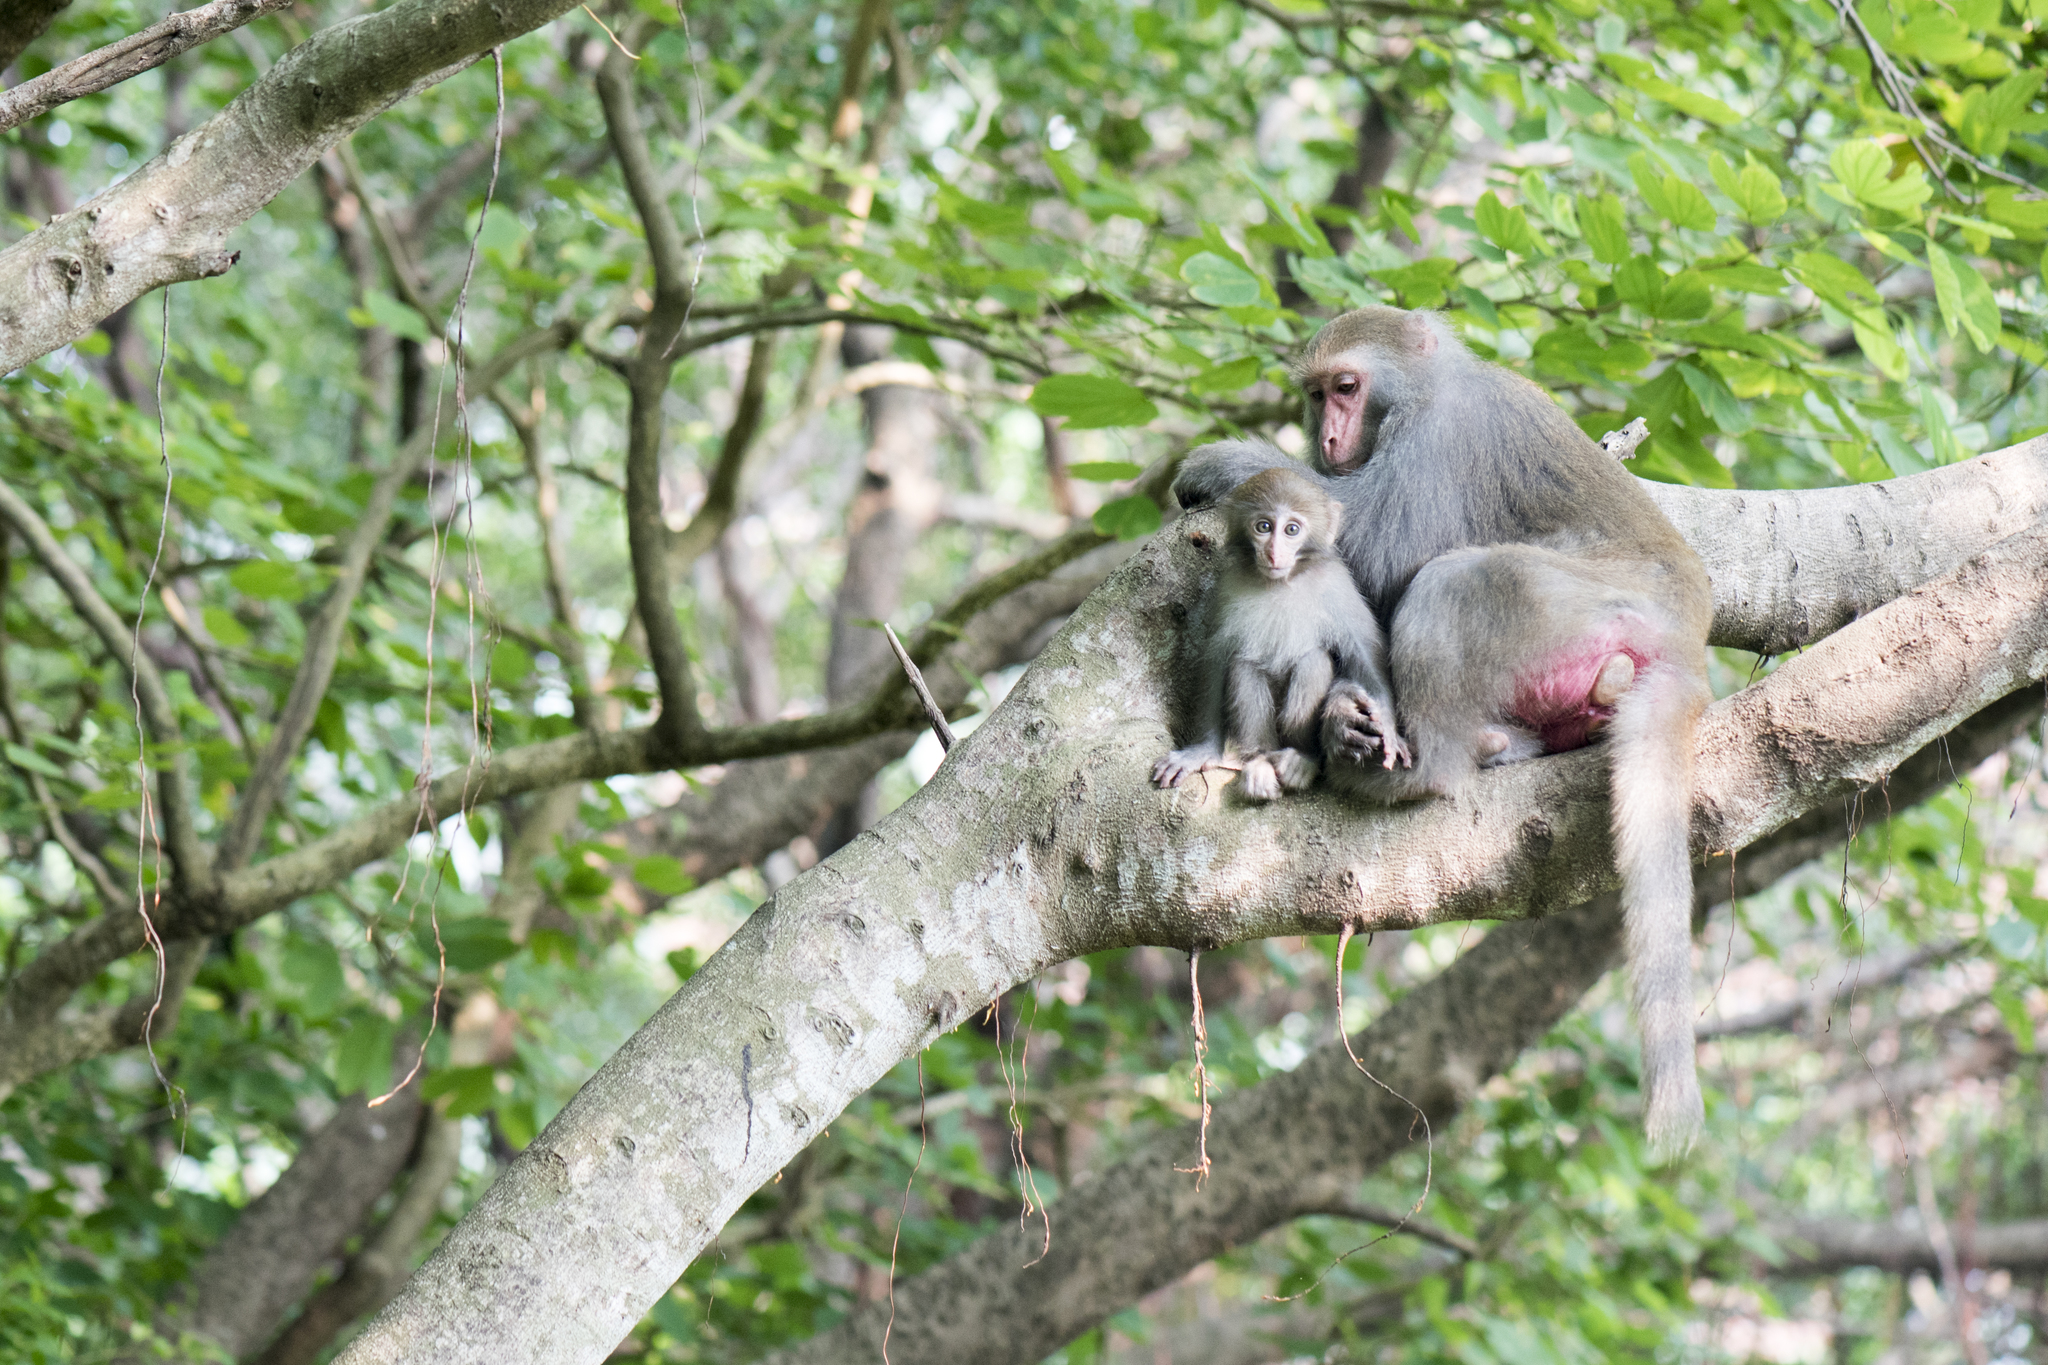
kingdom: Animalia
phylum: Chordata
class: Mammalia
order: Primates
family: Cercopithecidae
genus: Macaca
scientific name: Macaca cyclopis
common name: Formosan rock macaque
